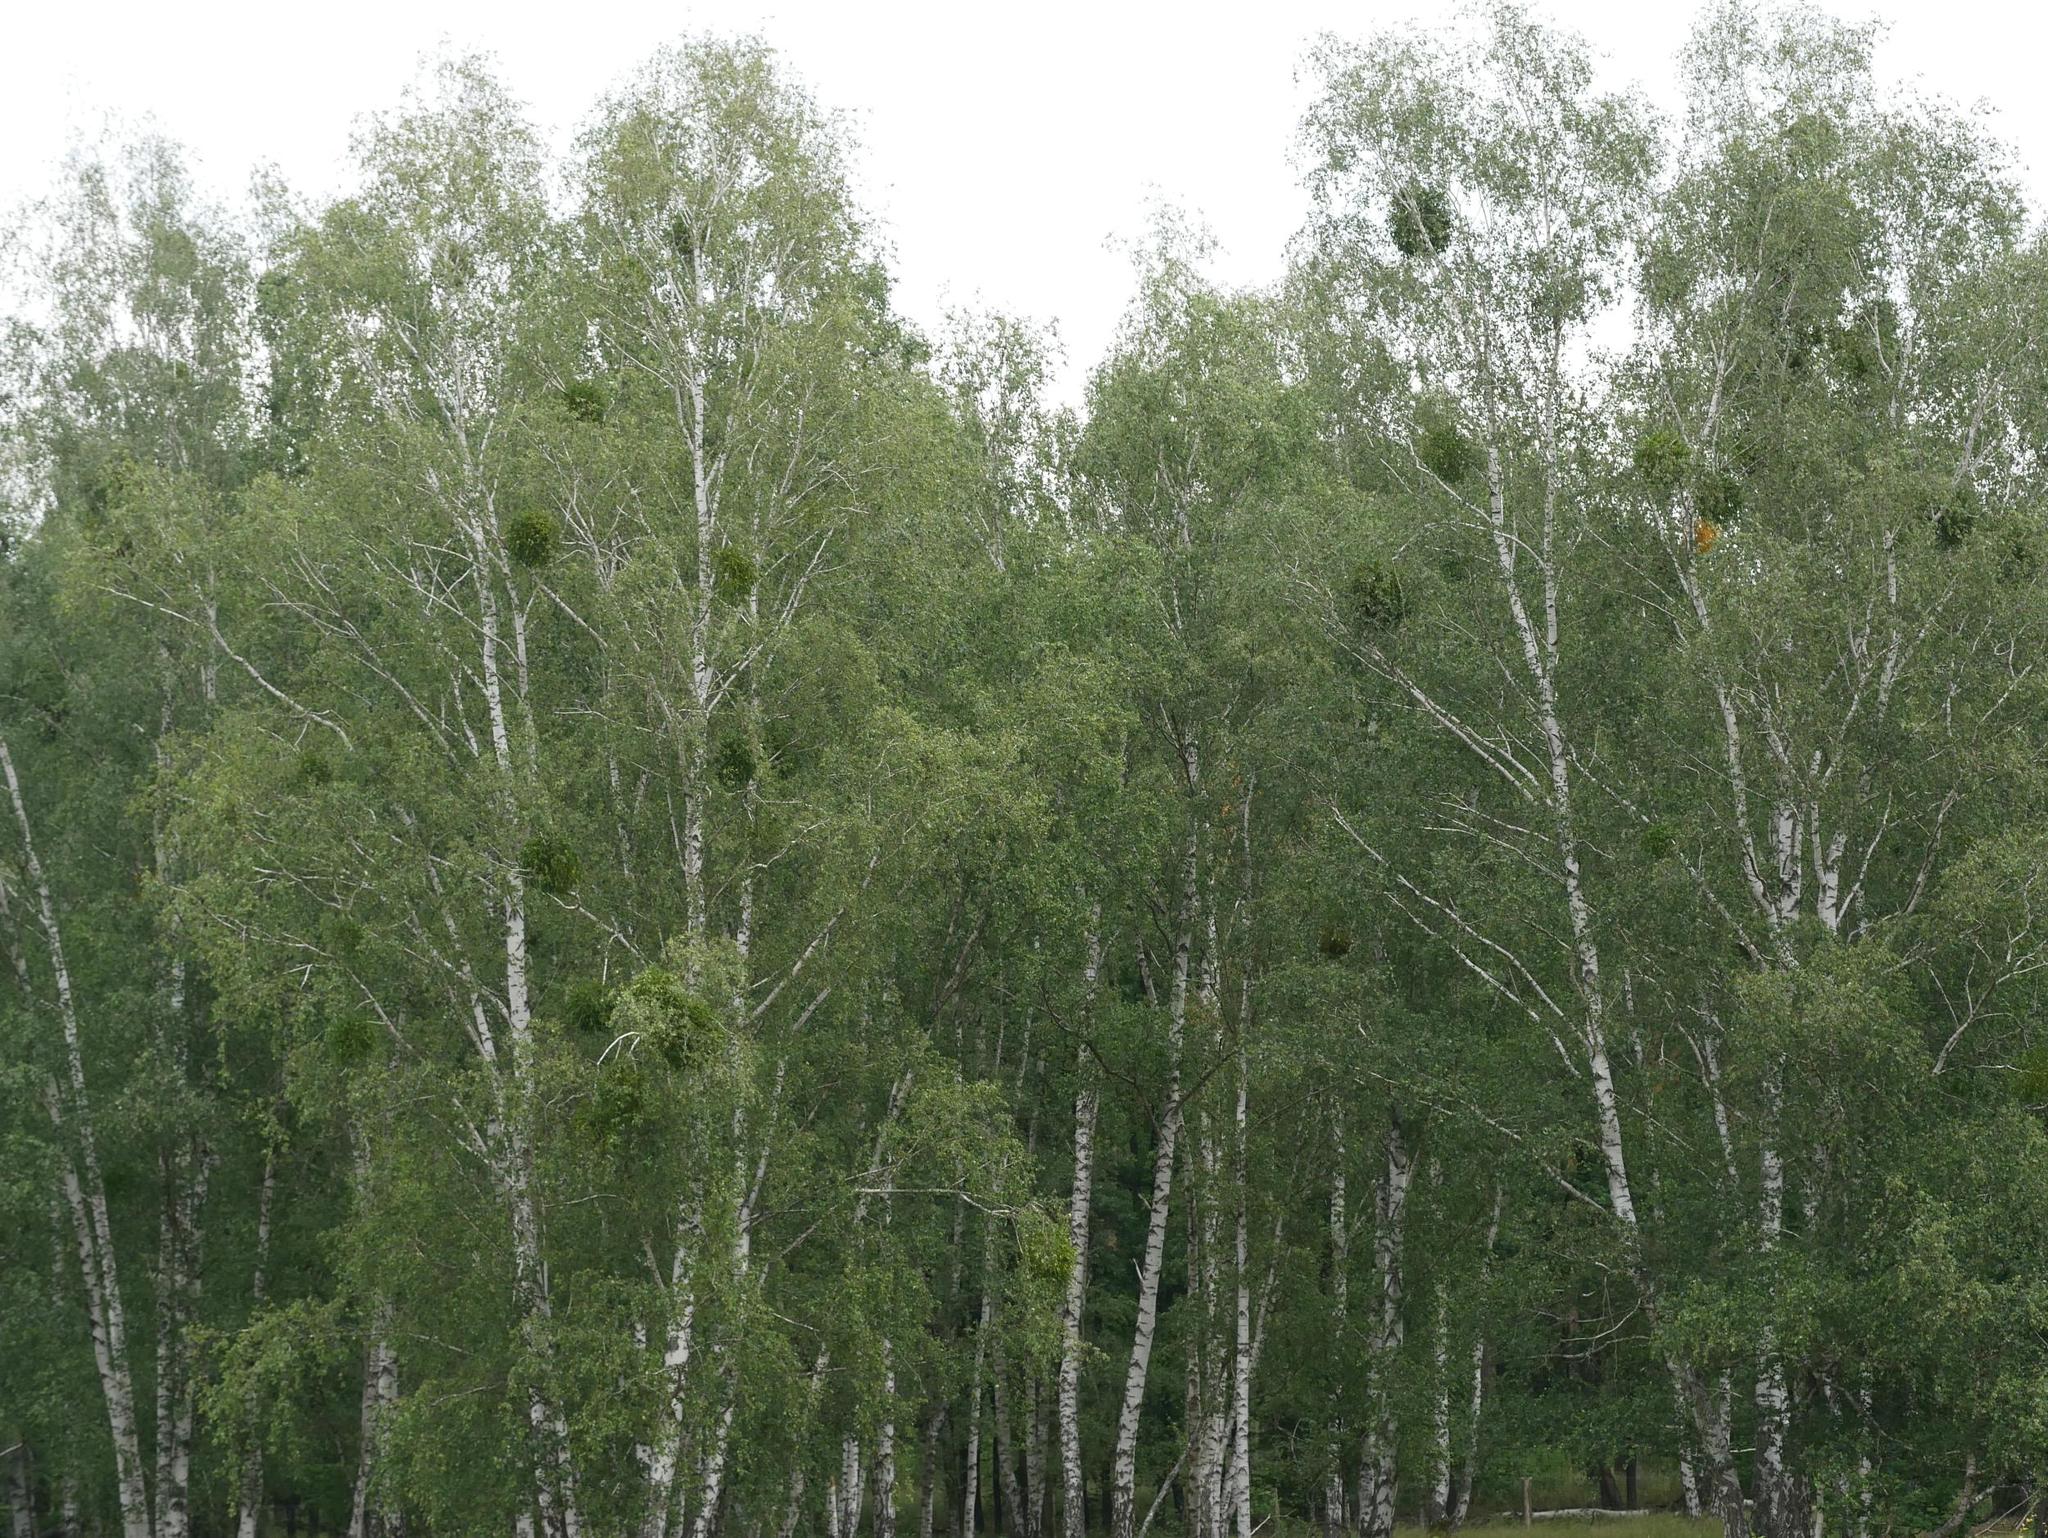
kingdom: Plantae
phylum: Tracheophyta
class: Magnoliopsida
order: Fagales
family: Betulaceae
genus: Betula
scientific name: Betula pendula
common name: Silver birch
